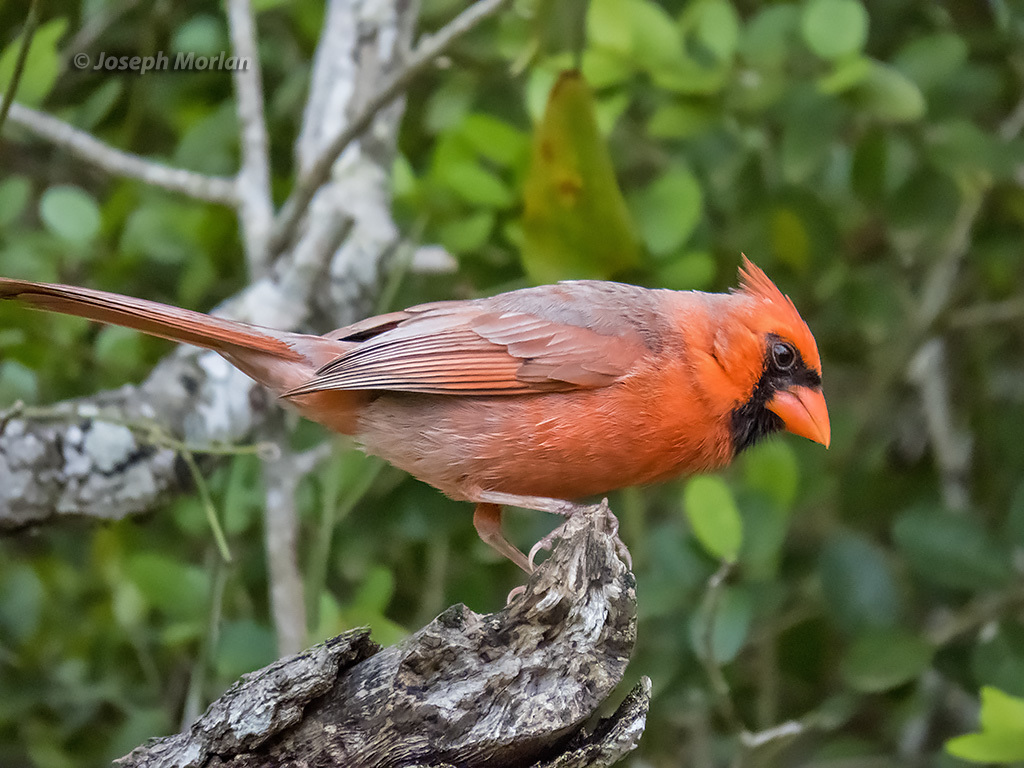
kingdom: Animalia
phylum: Chordata
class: Aves
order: Passeriformes
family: Cardinalidae
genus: Cardinalis
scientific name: Cardinalis cardinalis
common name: Northern cardinal
